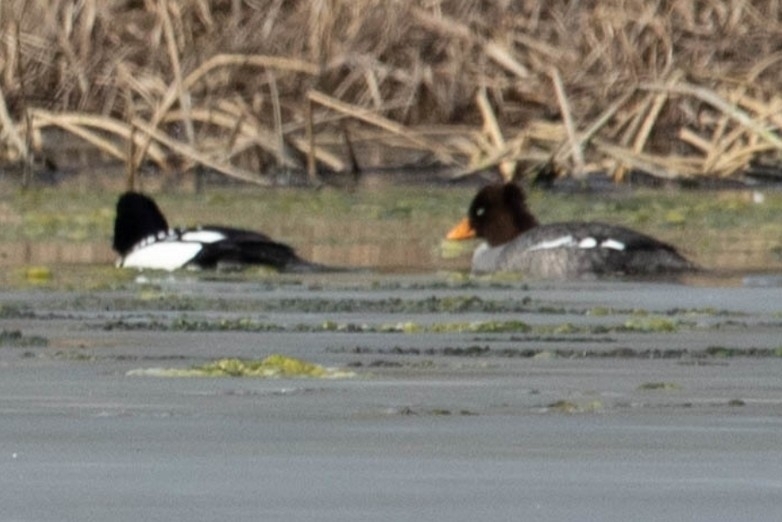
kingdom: Animalia
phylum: Chordata
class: Aves
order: Anseriformes
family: Anatidae
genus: Bucephala
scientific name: Bucephala islandica
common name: Barrow's goldeneye
